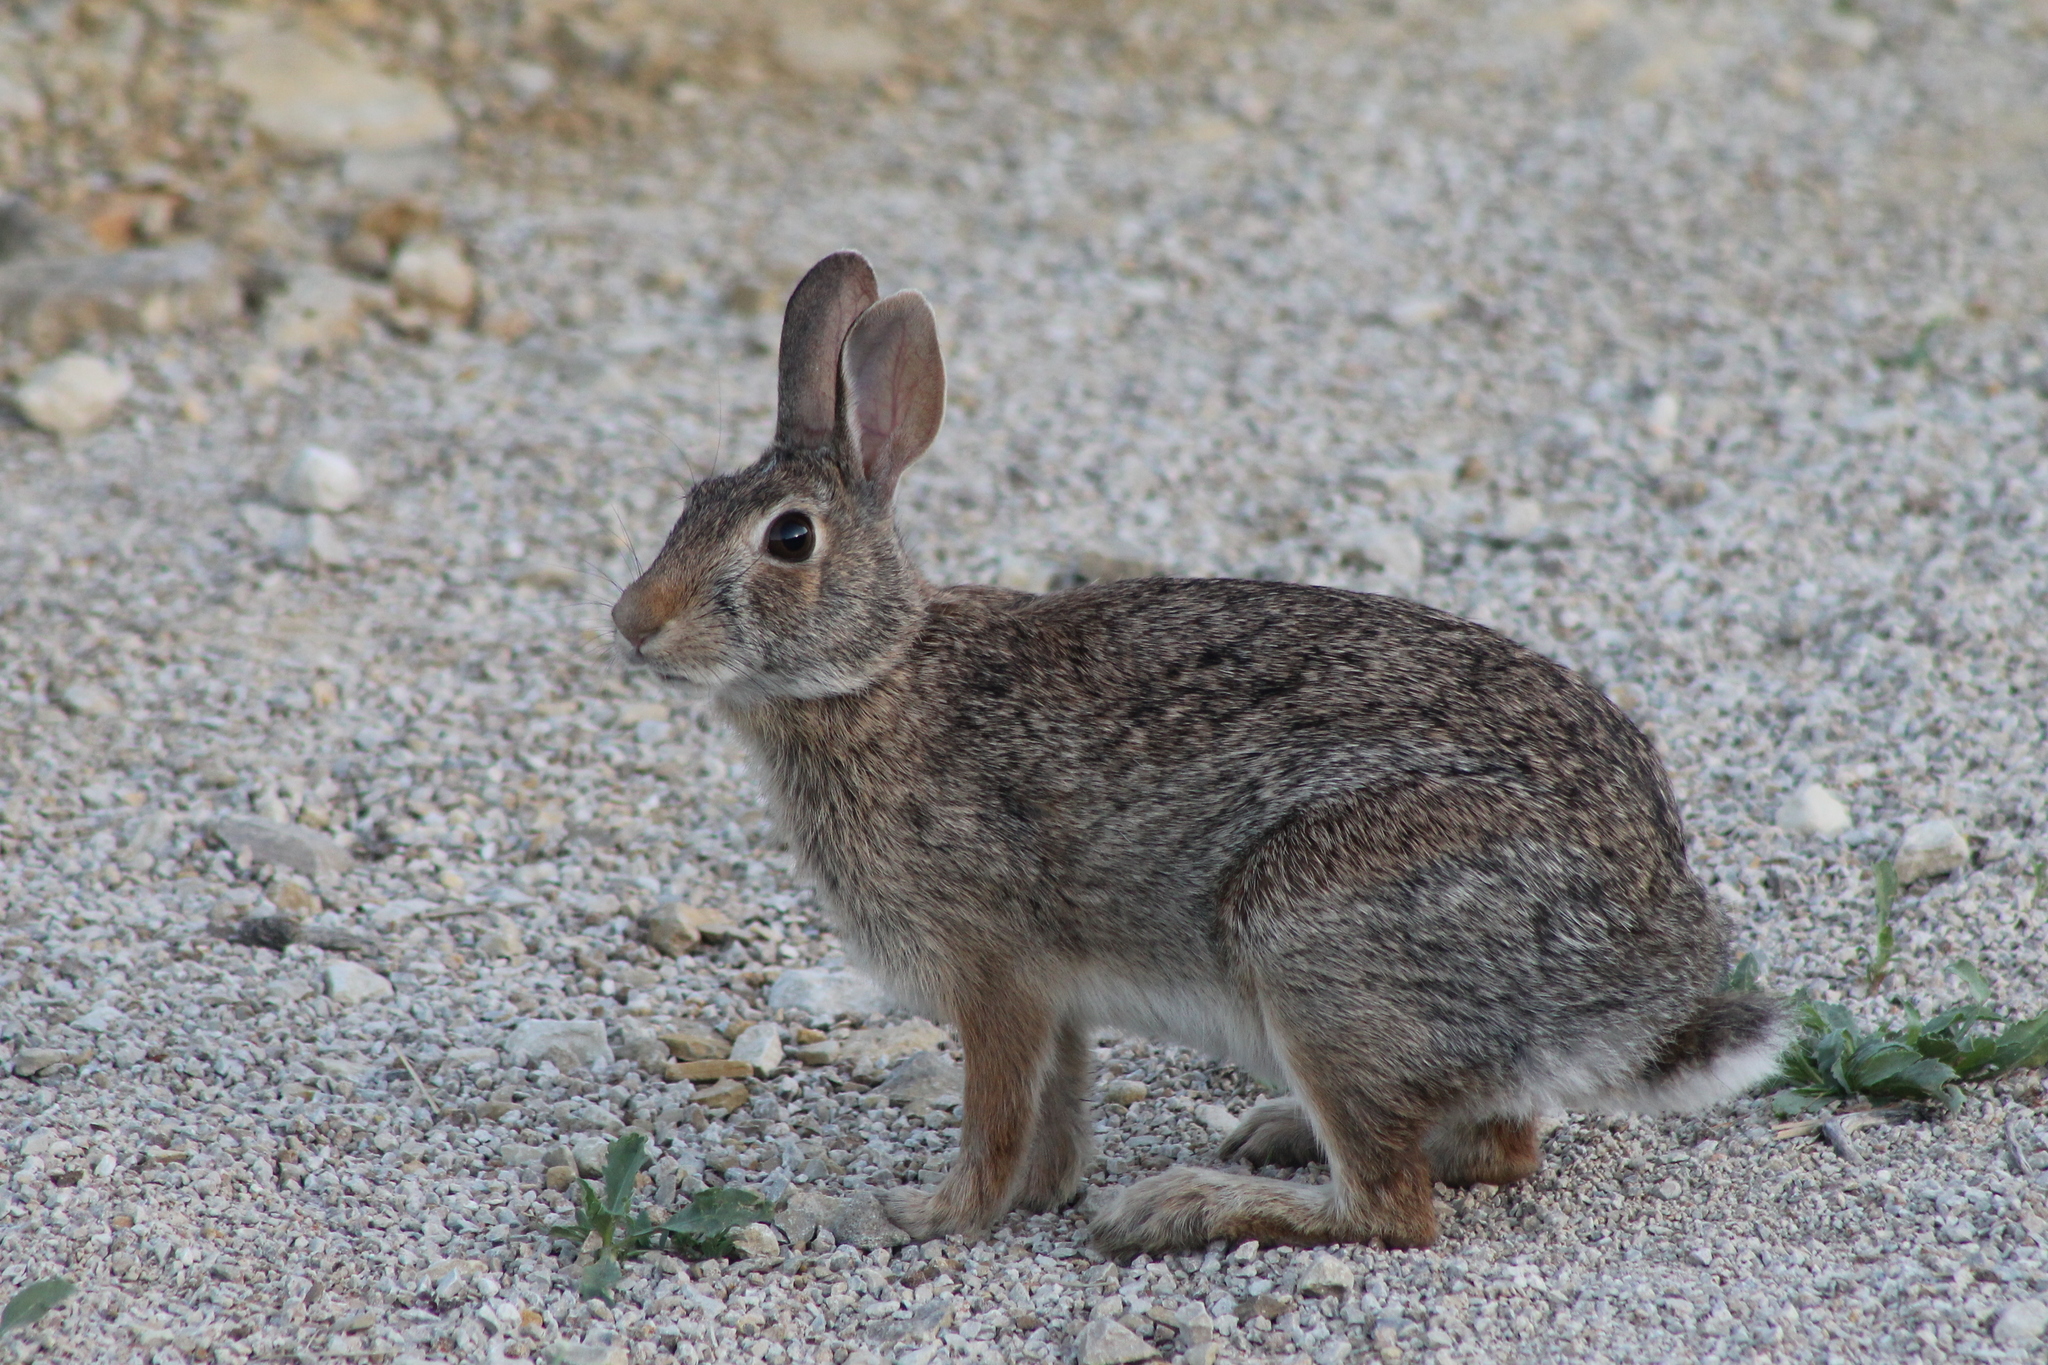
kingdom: Animalia
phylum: Chordata
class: Mammalia
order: Lagomorpha
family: Leporidae
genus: Sylvilagus
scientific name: Sylvilagus floridanus
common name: Eastern cottontail
